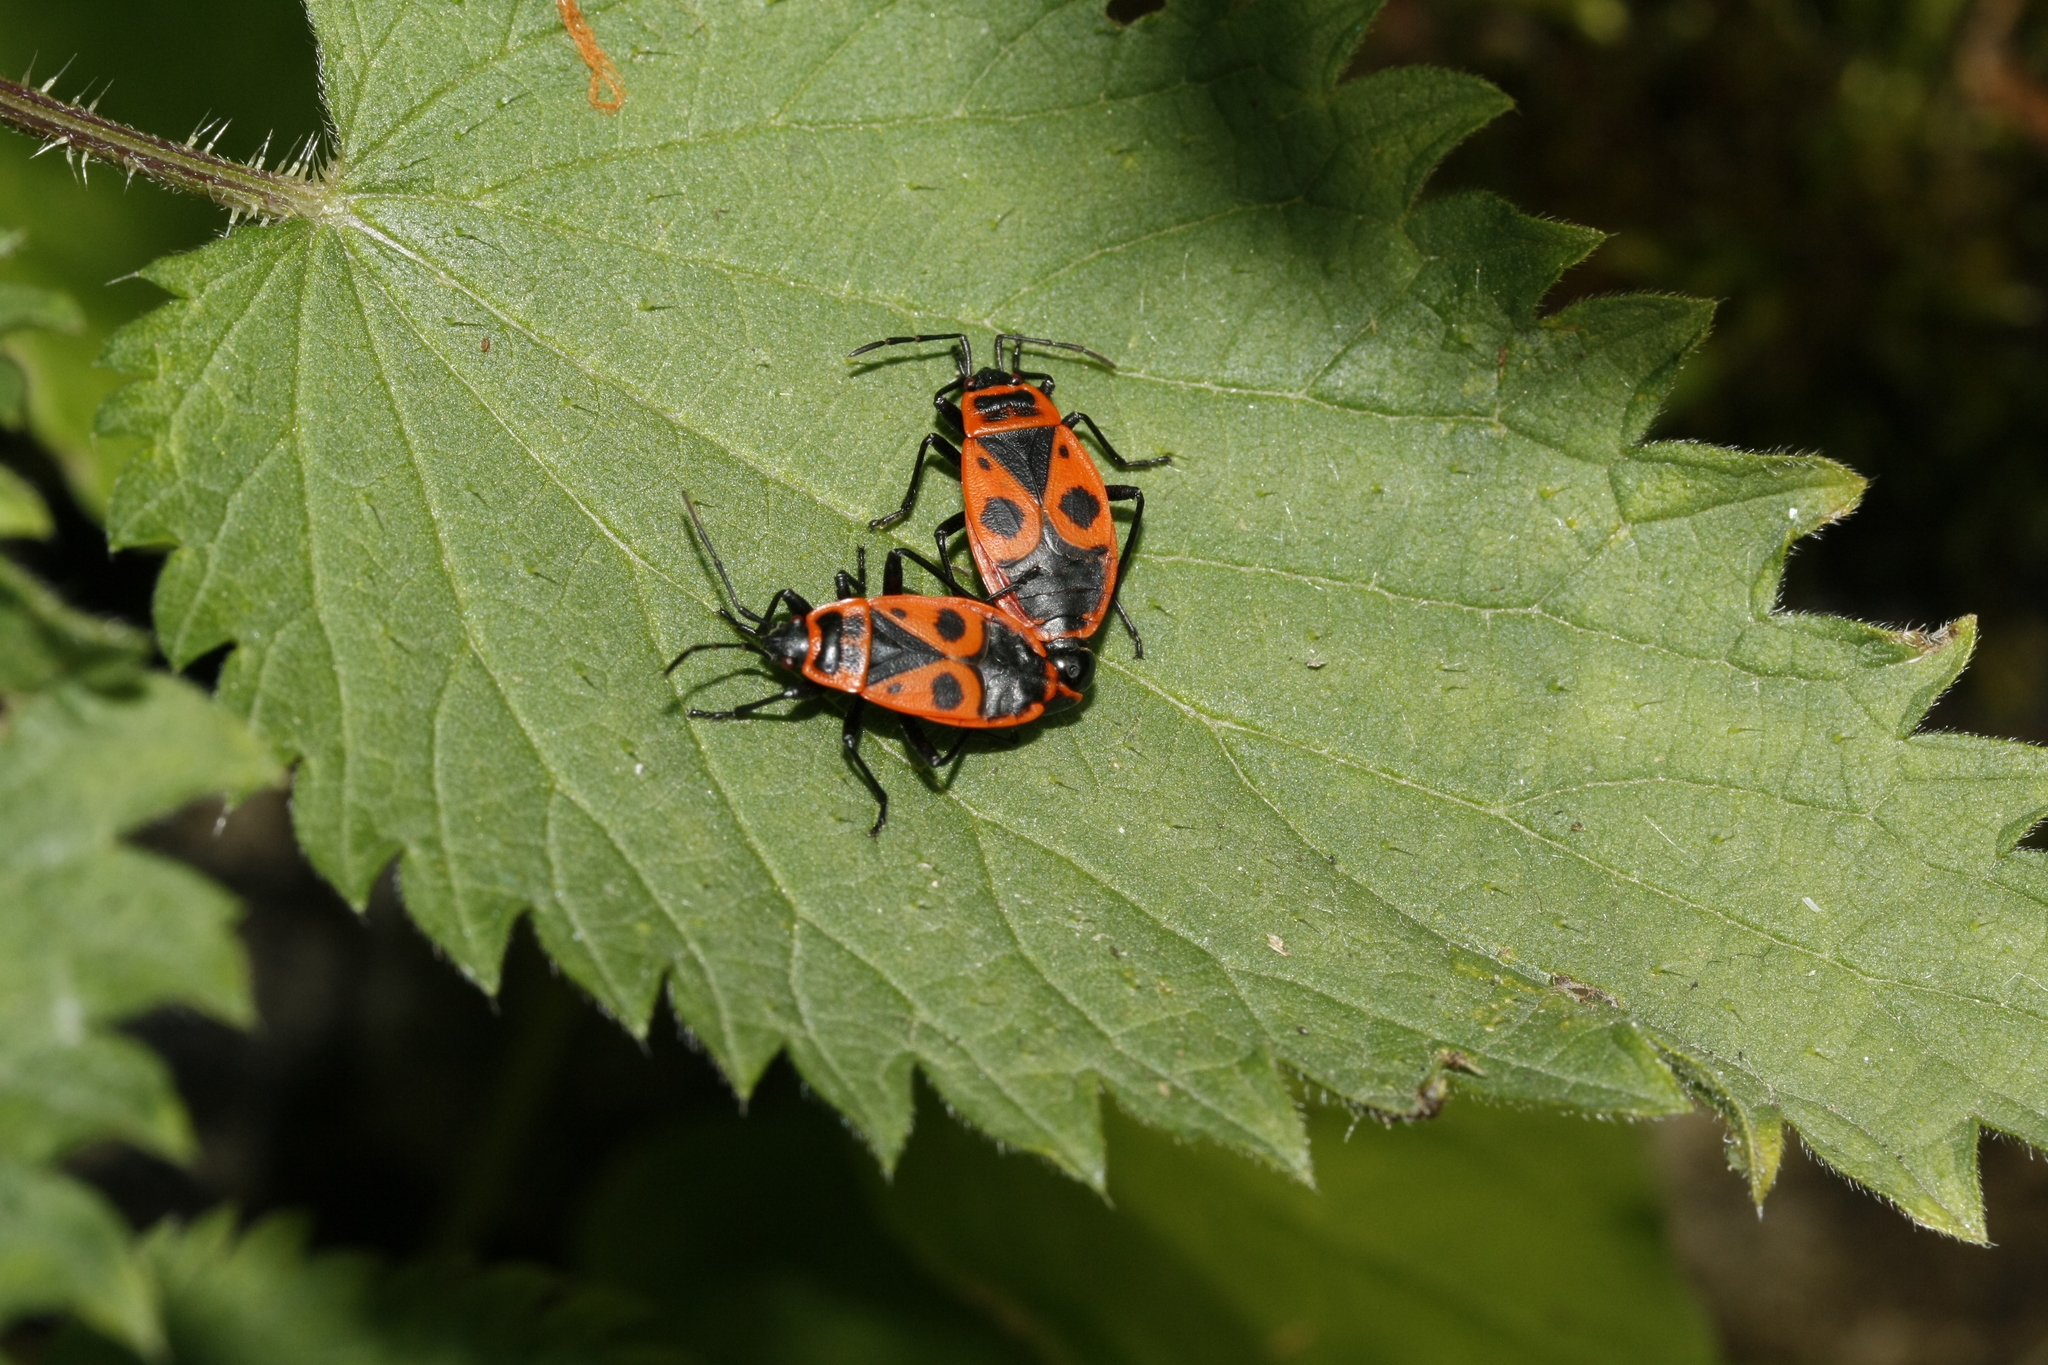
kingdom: Animalia
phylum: Arthropoda
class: Insecta
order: Hemiptera
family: Pyrrhocoridae
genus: Pyrrhocoris
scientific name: Pyrrhocoris apterus
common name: Firebug
